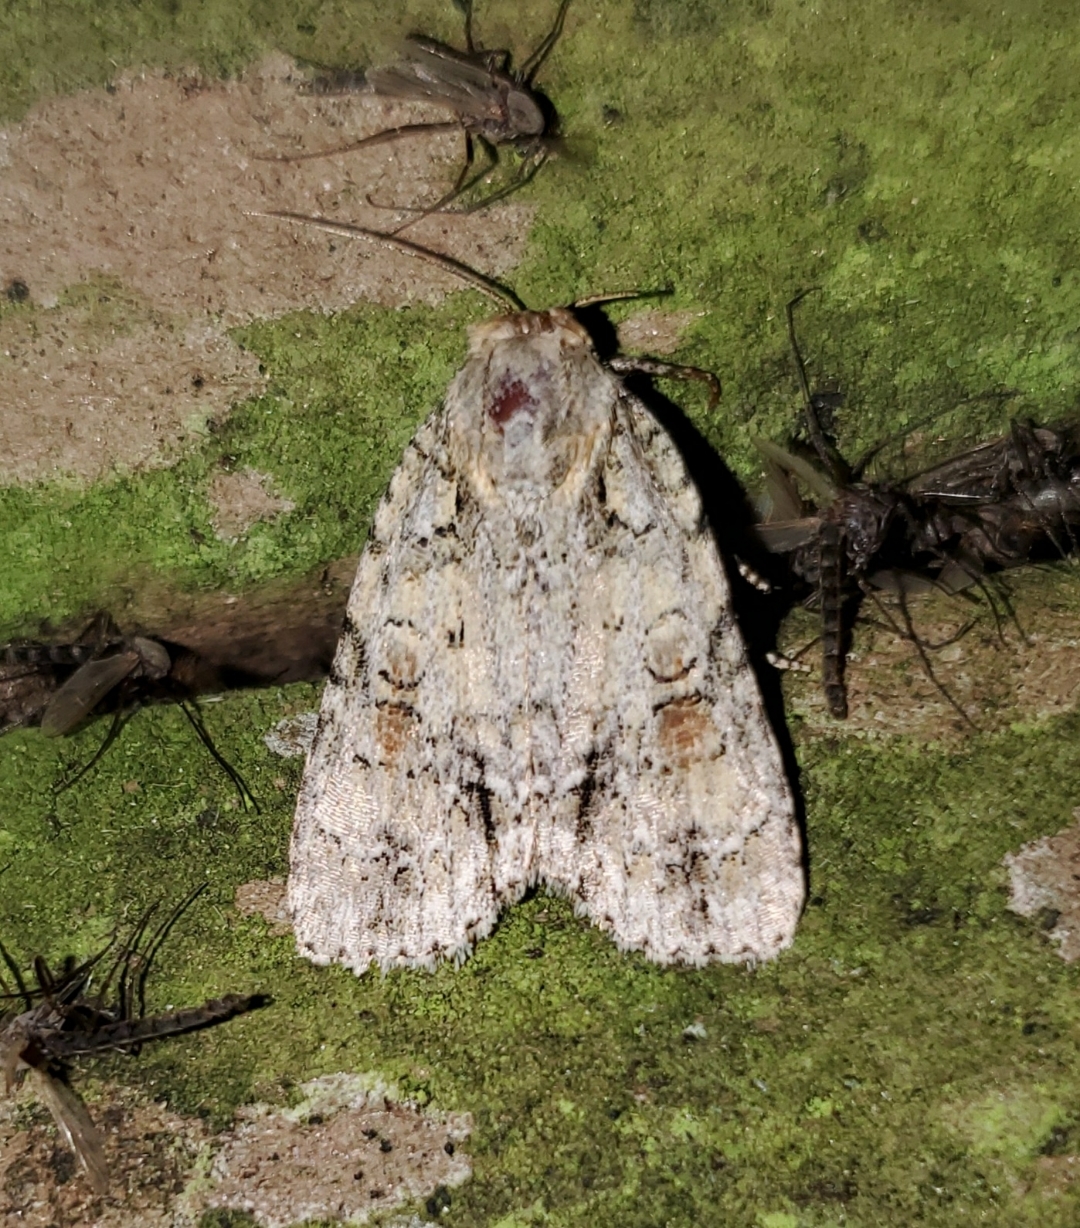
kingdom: Animalia
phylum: Arthropoda
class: Insecta
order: Lepidoptera
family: Noctuidae
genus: Acronicta
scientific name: Acronicta exilis
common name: Exiled dagger moth
